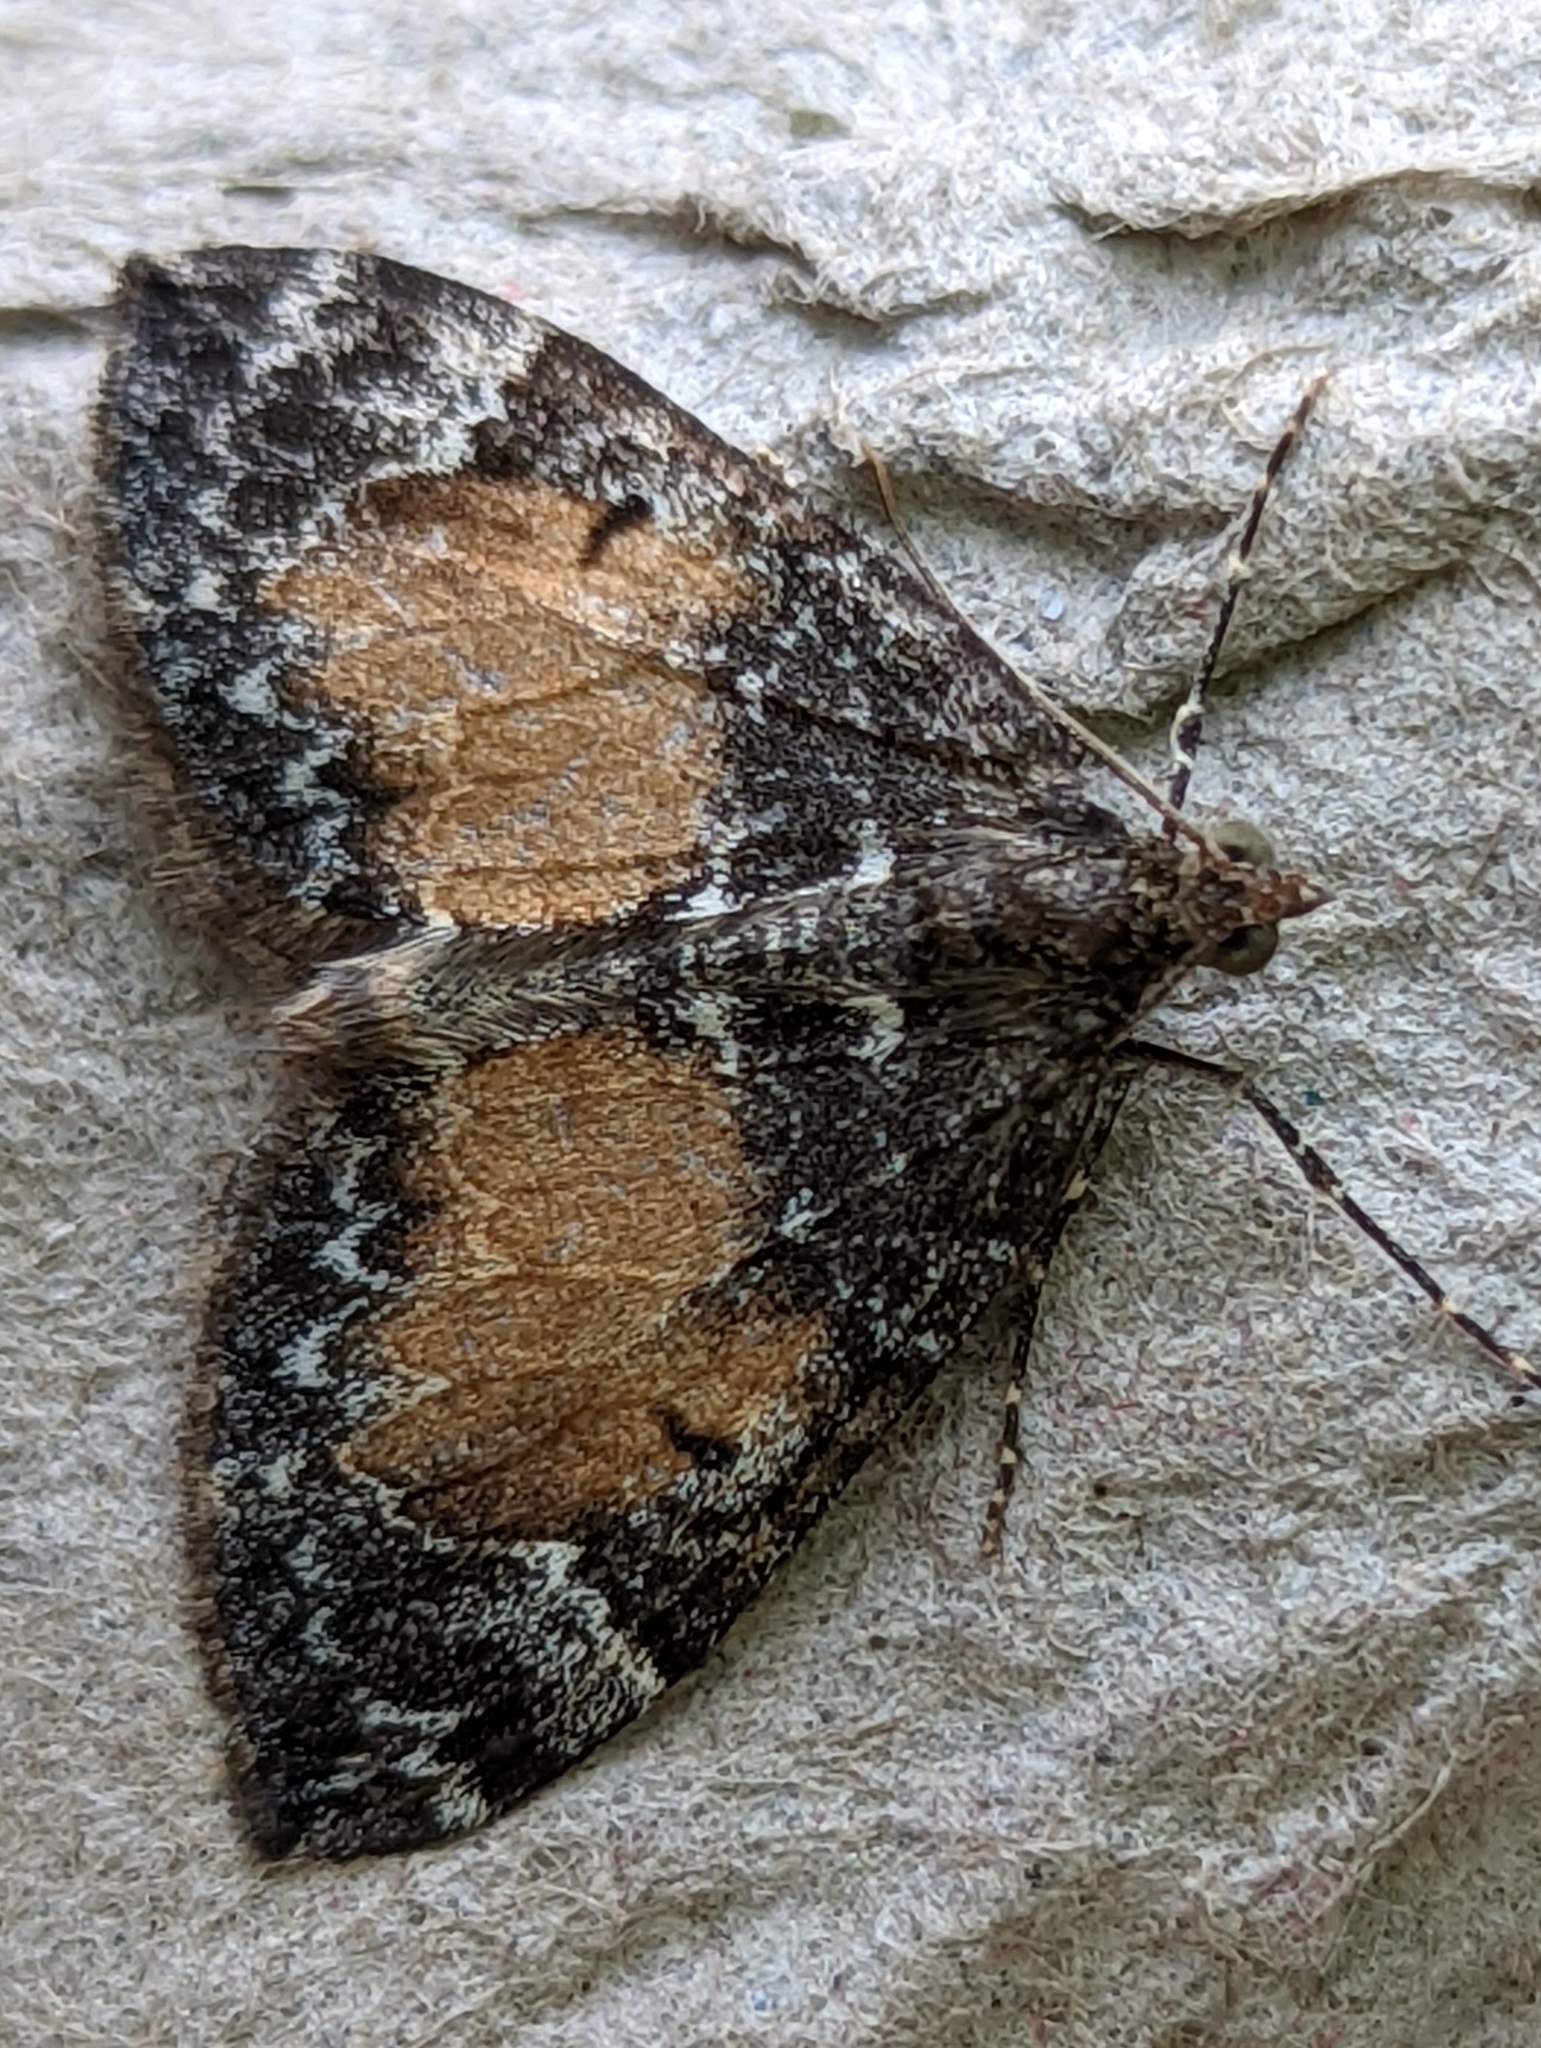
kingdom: Animalia
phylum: Arthropoda
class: Insecta
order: Lepidoptera
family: Geometridae
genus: Dysstroma
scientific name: Dysstroma truncata
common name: Common marbled carpet
